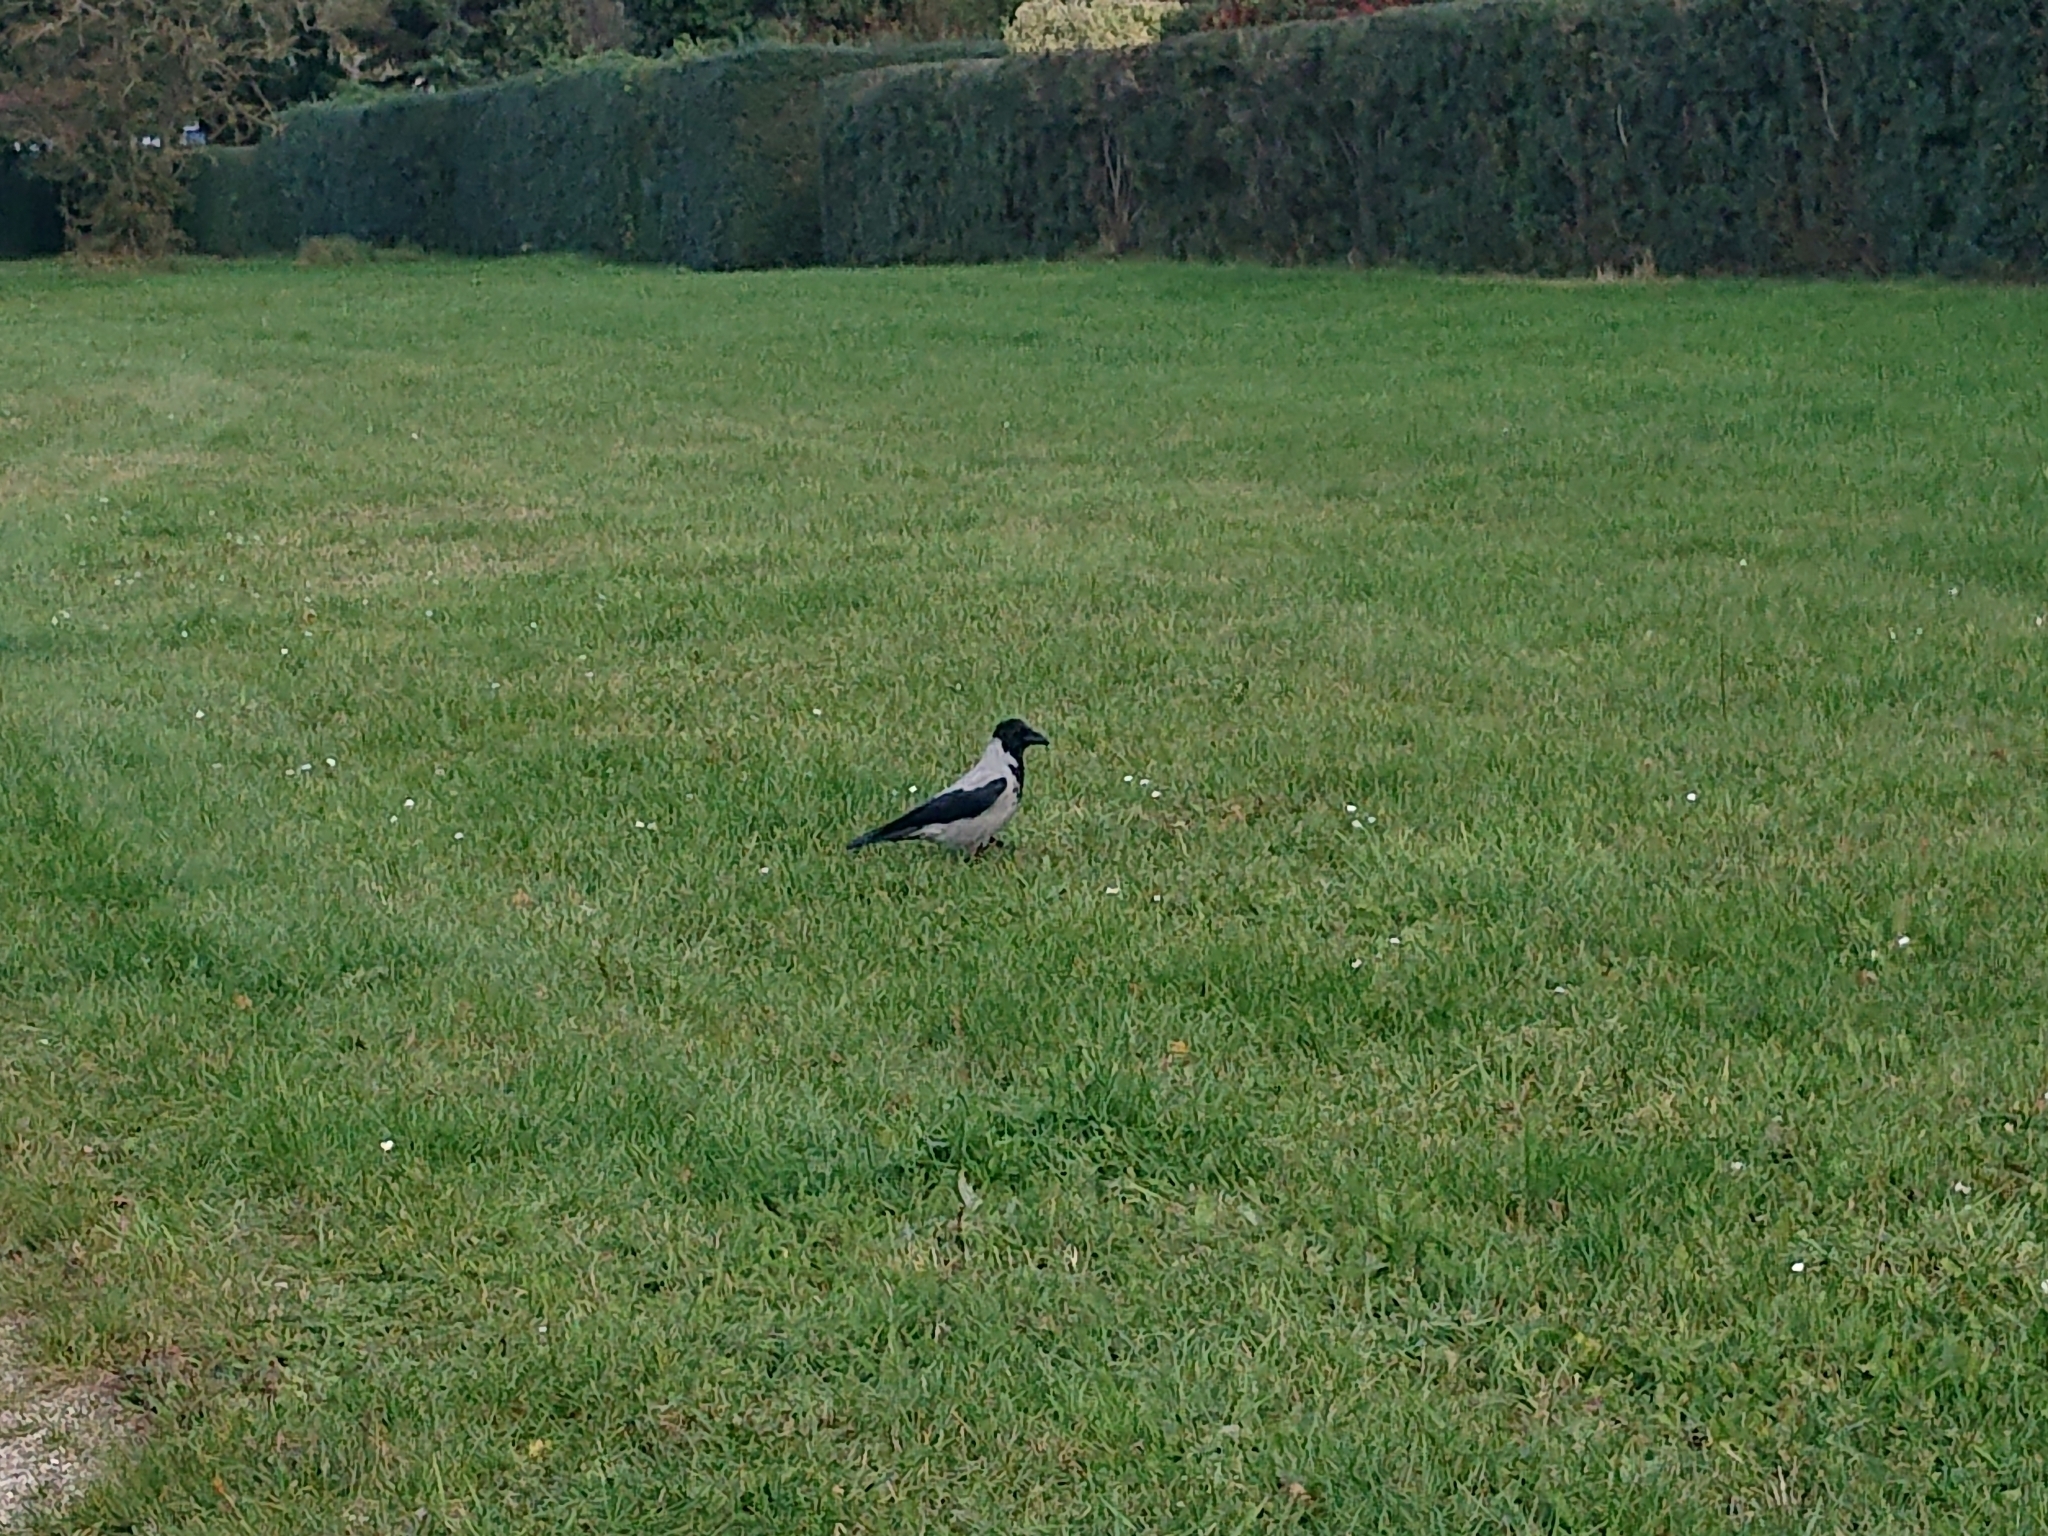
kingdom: Animalia
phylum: Chordata
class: Aves
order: Passeriformes
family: Corvidae
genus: Corvus
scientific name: Corvus cornix
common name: Hooded crow
